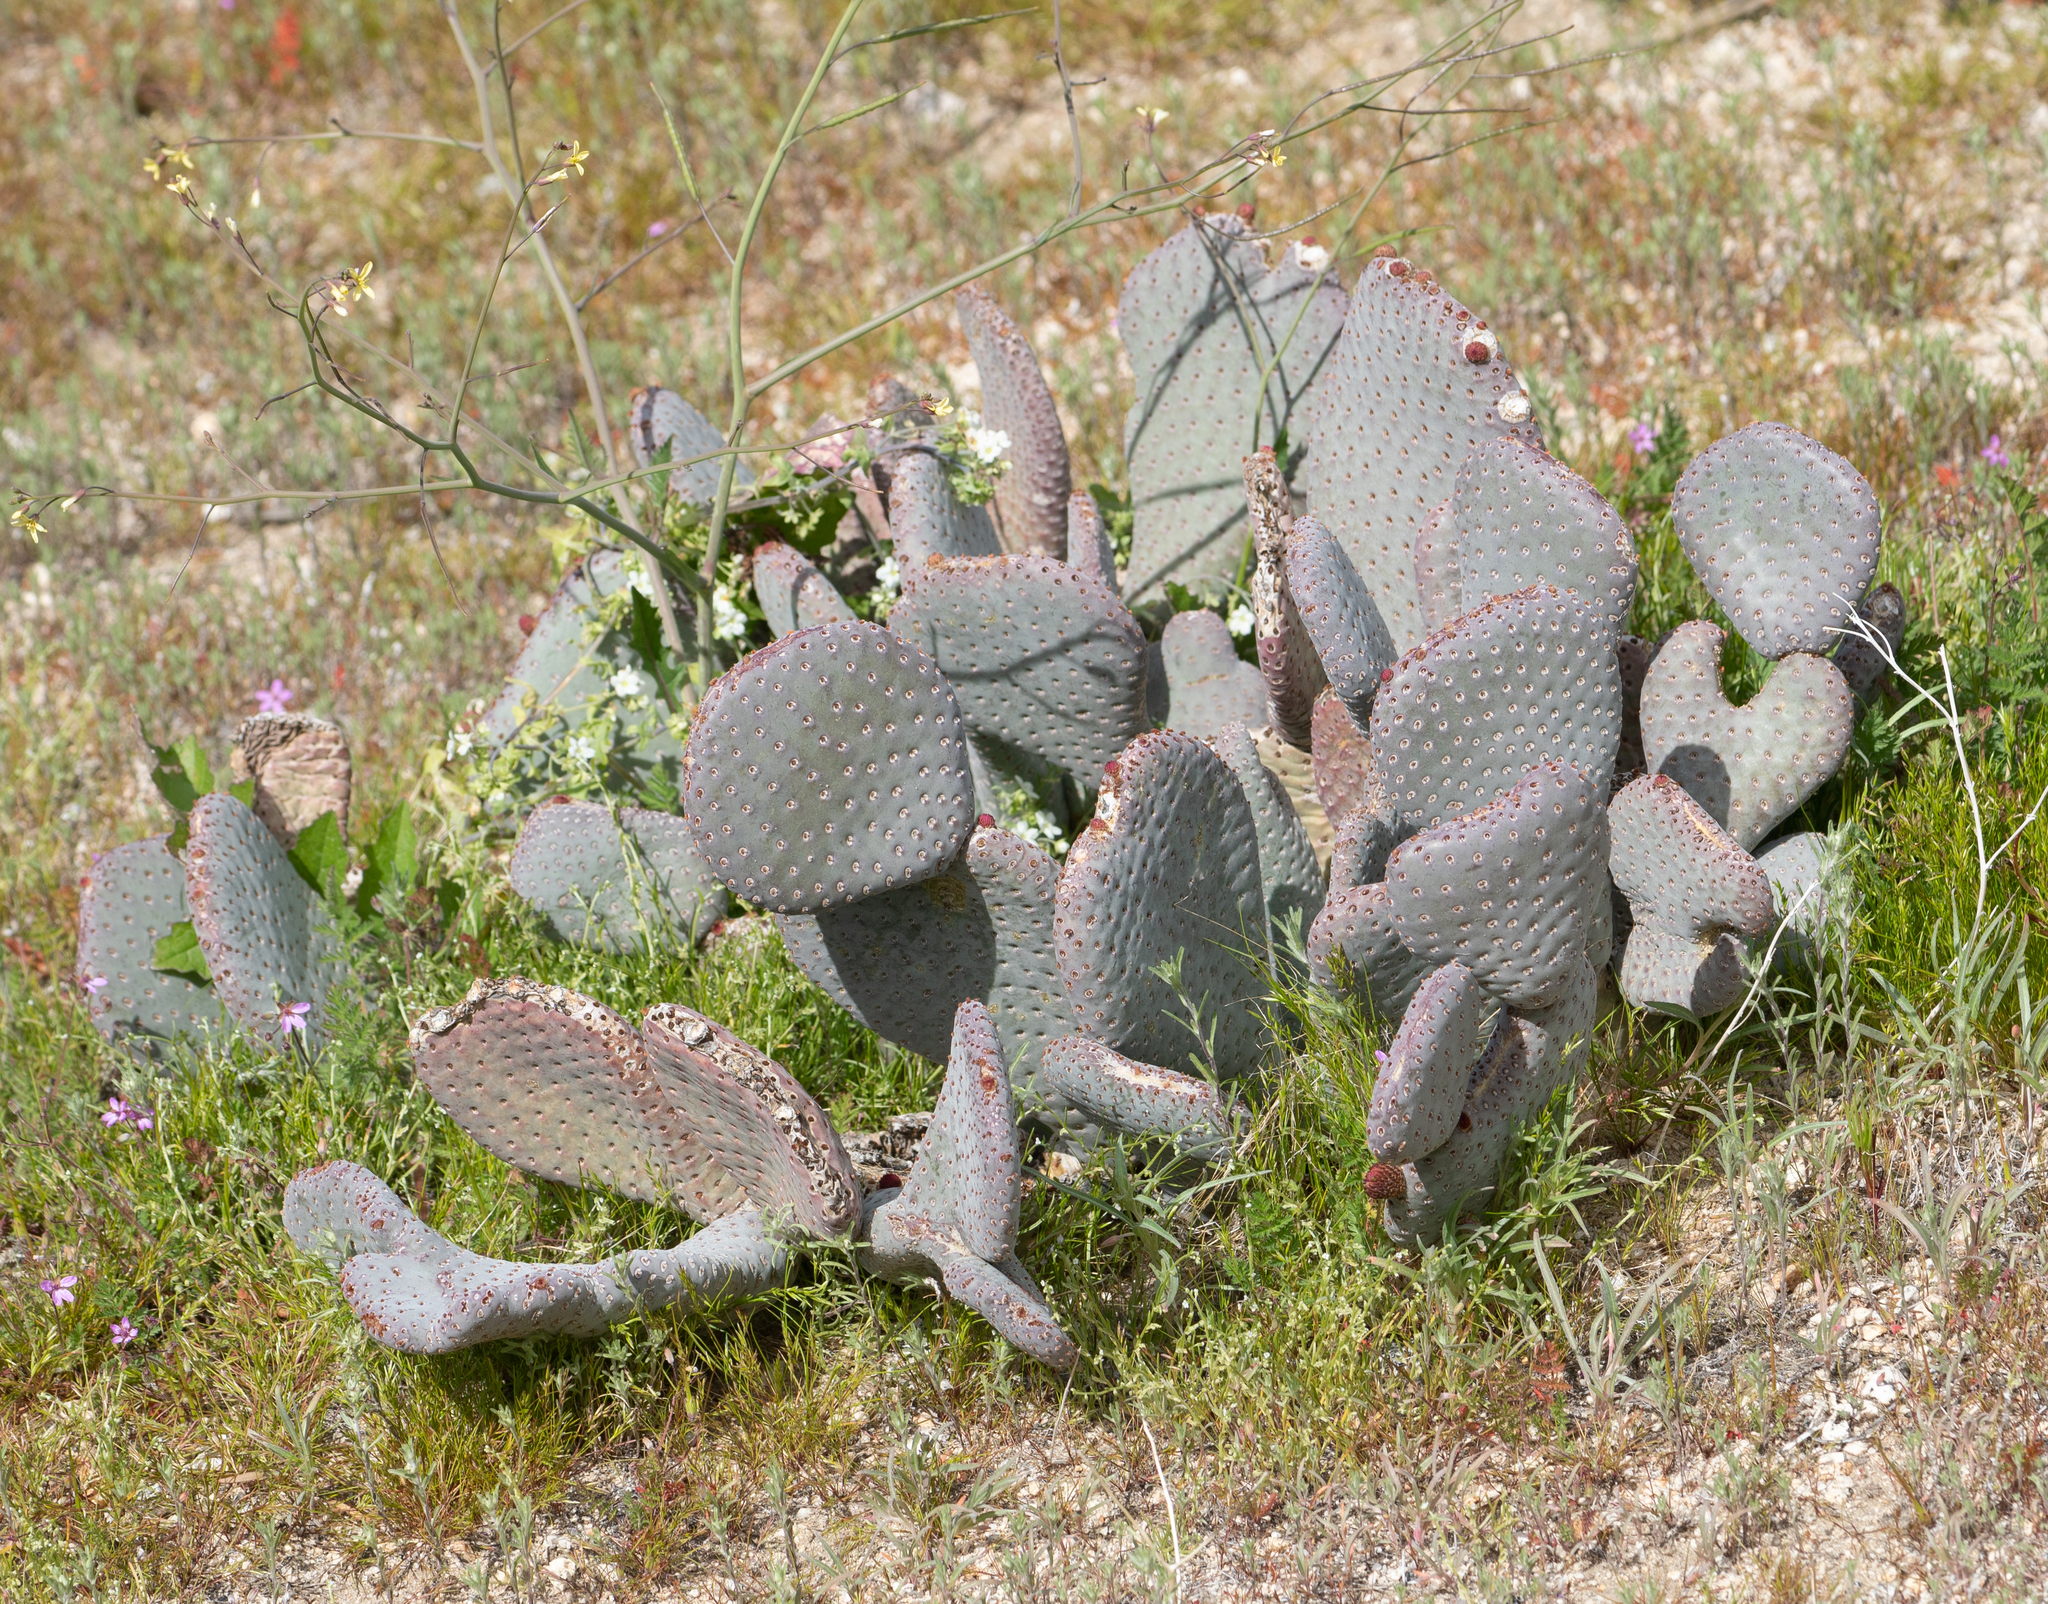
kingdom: Plantae
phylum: Tracheophyta
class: Magnoliopsida
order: Caryophyllales
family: Cactaceae
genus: Opuntia
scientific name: Opuntia basilaris
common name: Beavertail prickly-pear
